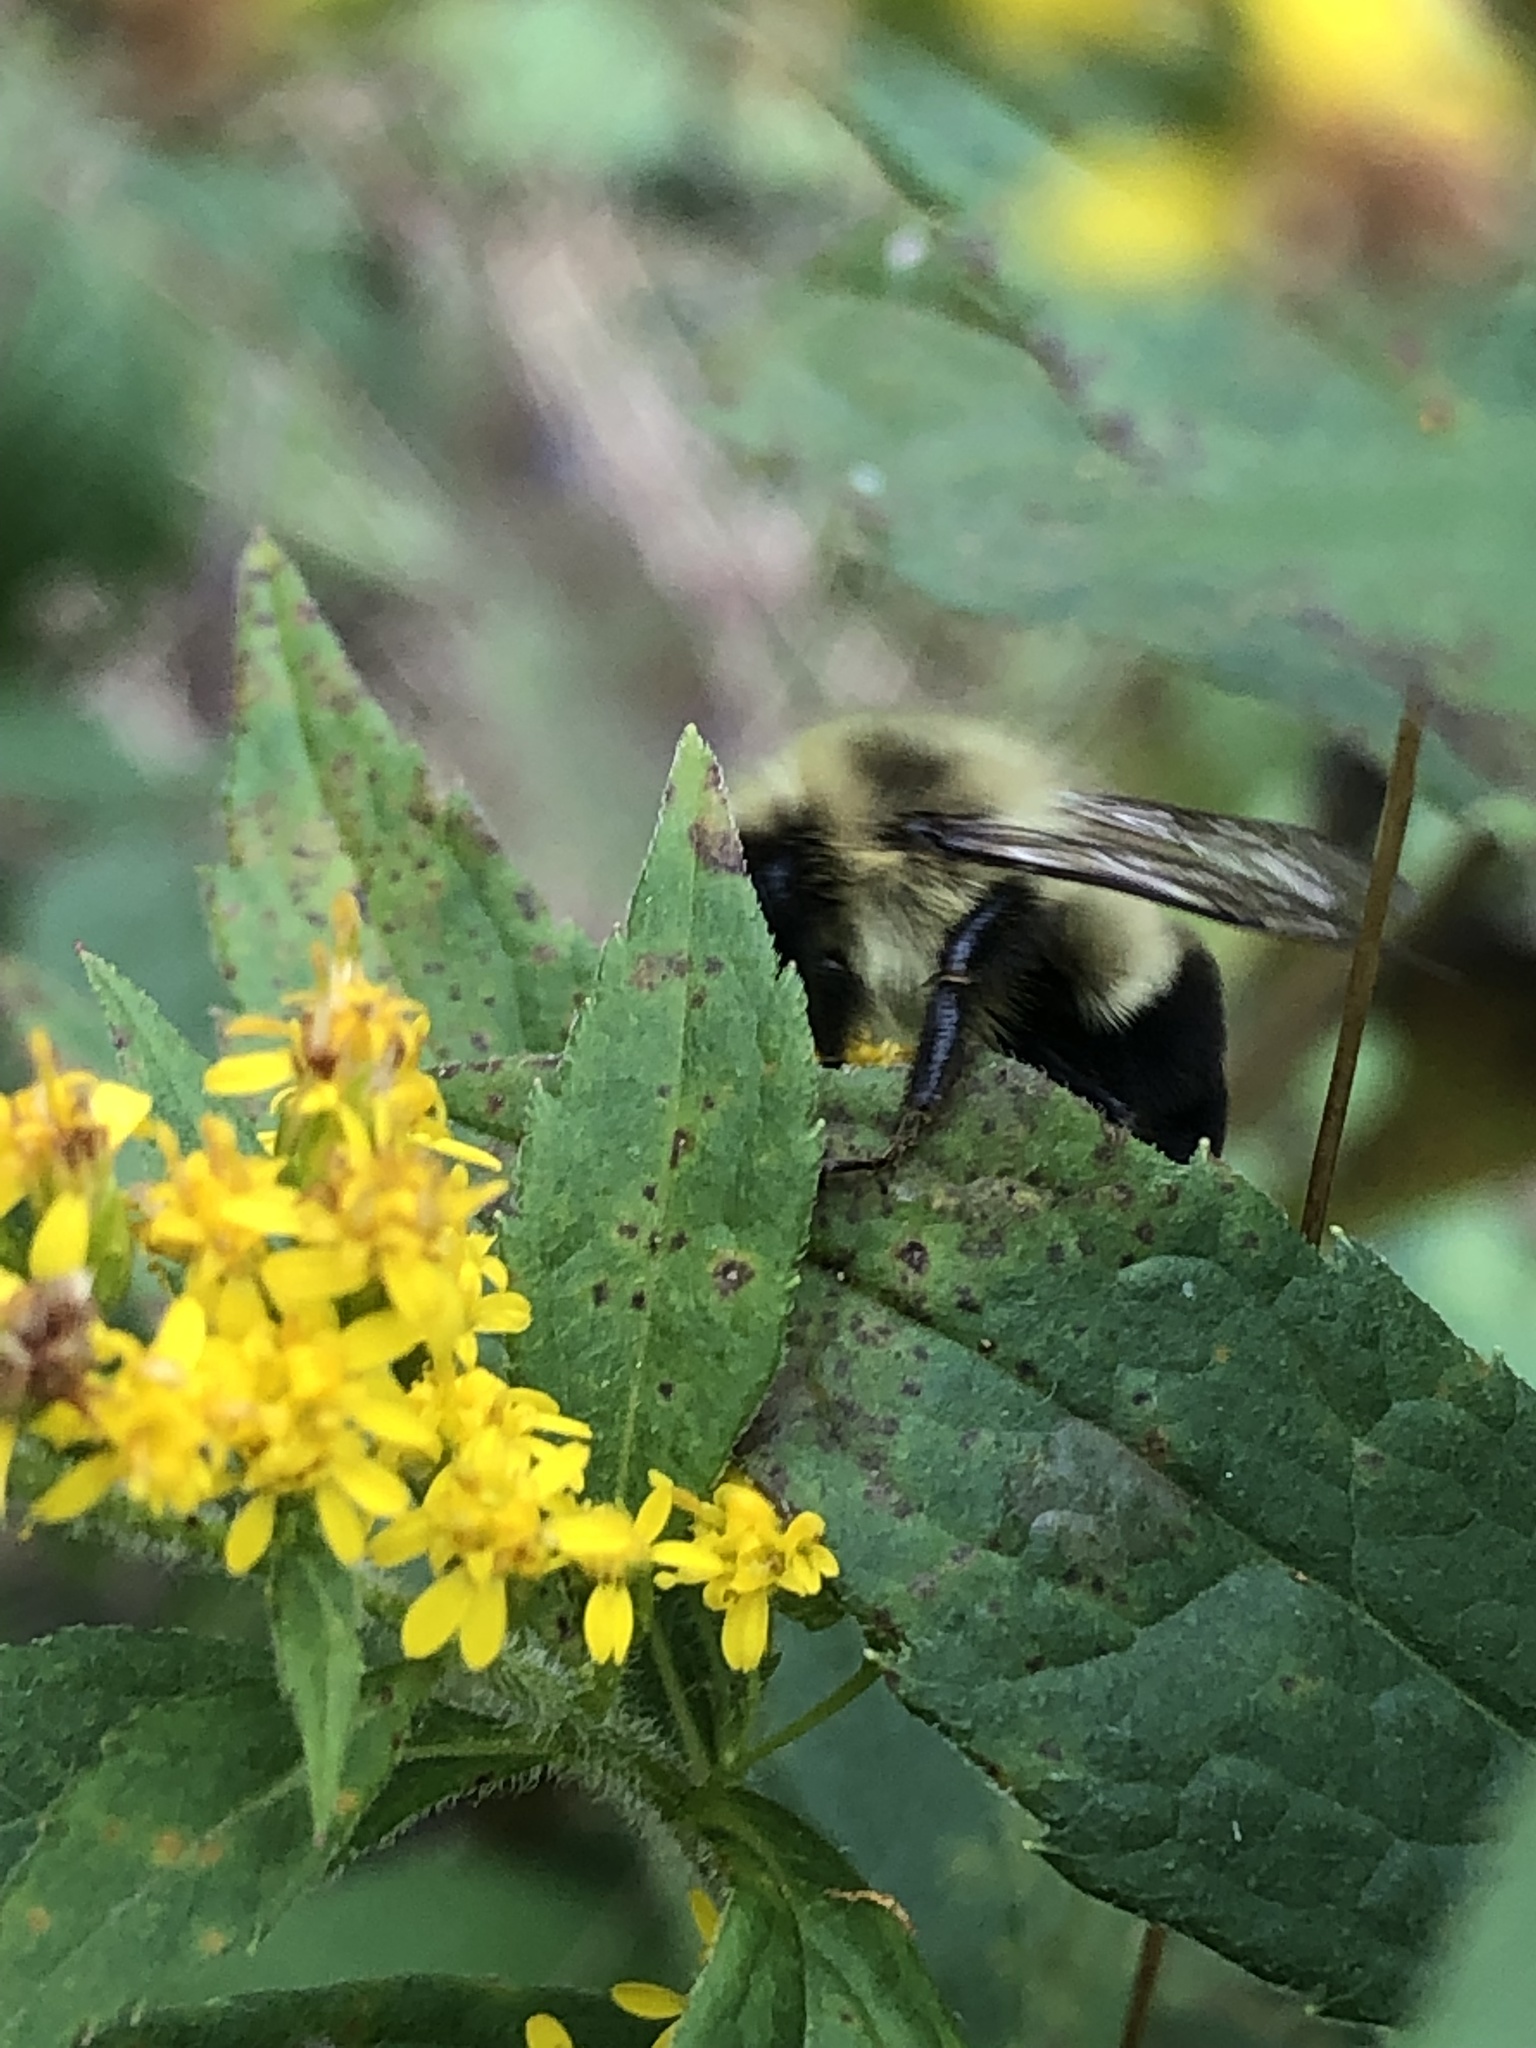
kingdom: Animalia
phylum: Arthropoda
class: Insecta
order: Hymenoptera
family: Apidae
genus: Bombus
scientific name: Bombus impatiens
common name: Common eastern bumble bee
